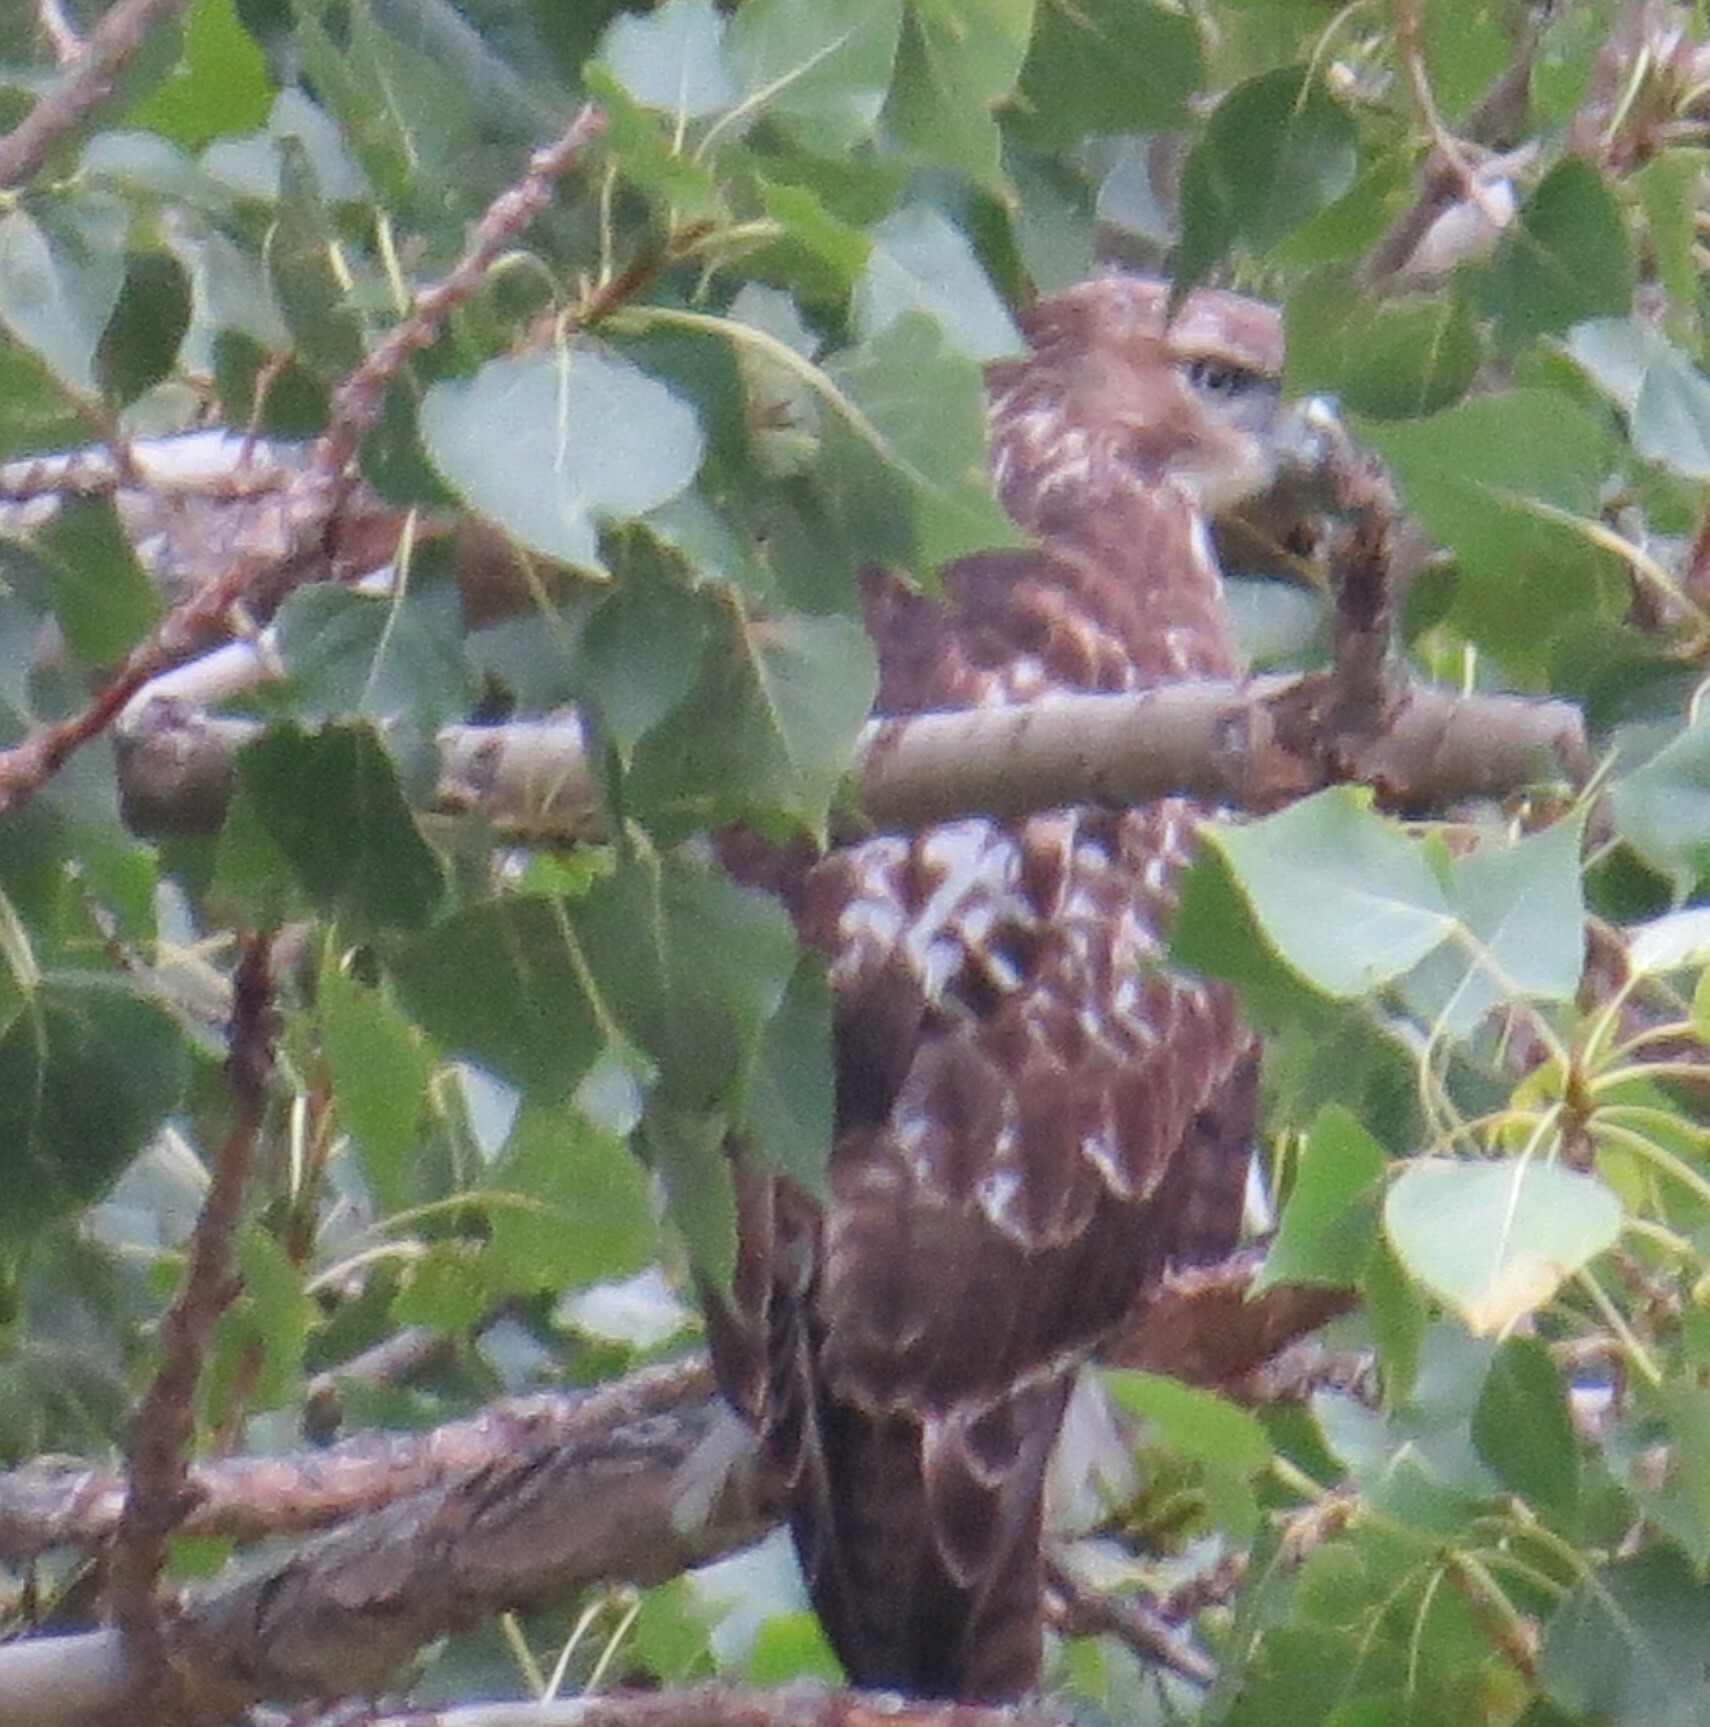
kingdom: Animalia
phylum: Chordata
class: Aves
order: Accipitriformes
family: Accipitridae
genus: Buteo
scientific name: Buteo jamaicensis
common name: Red-tailed hawk
